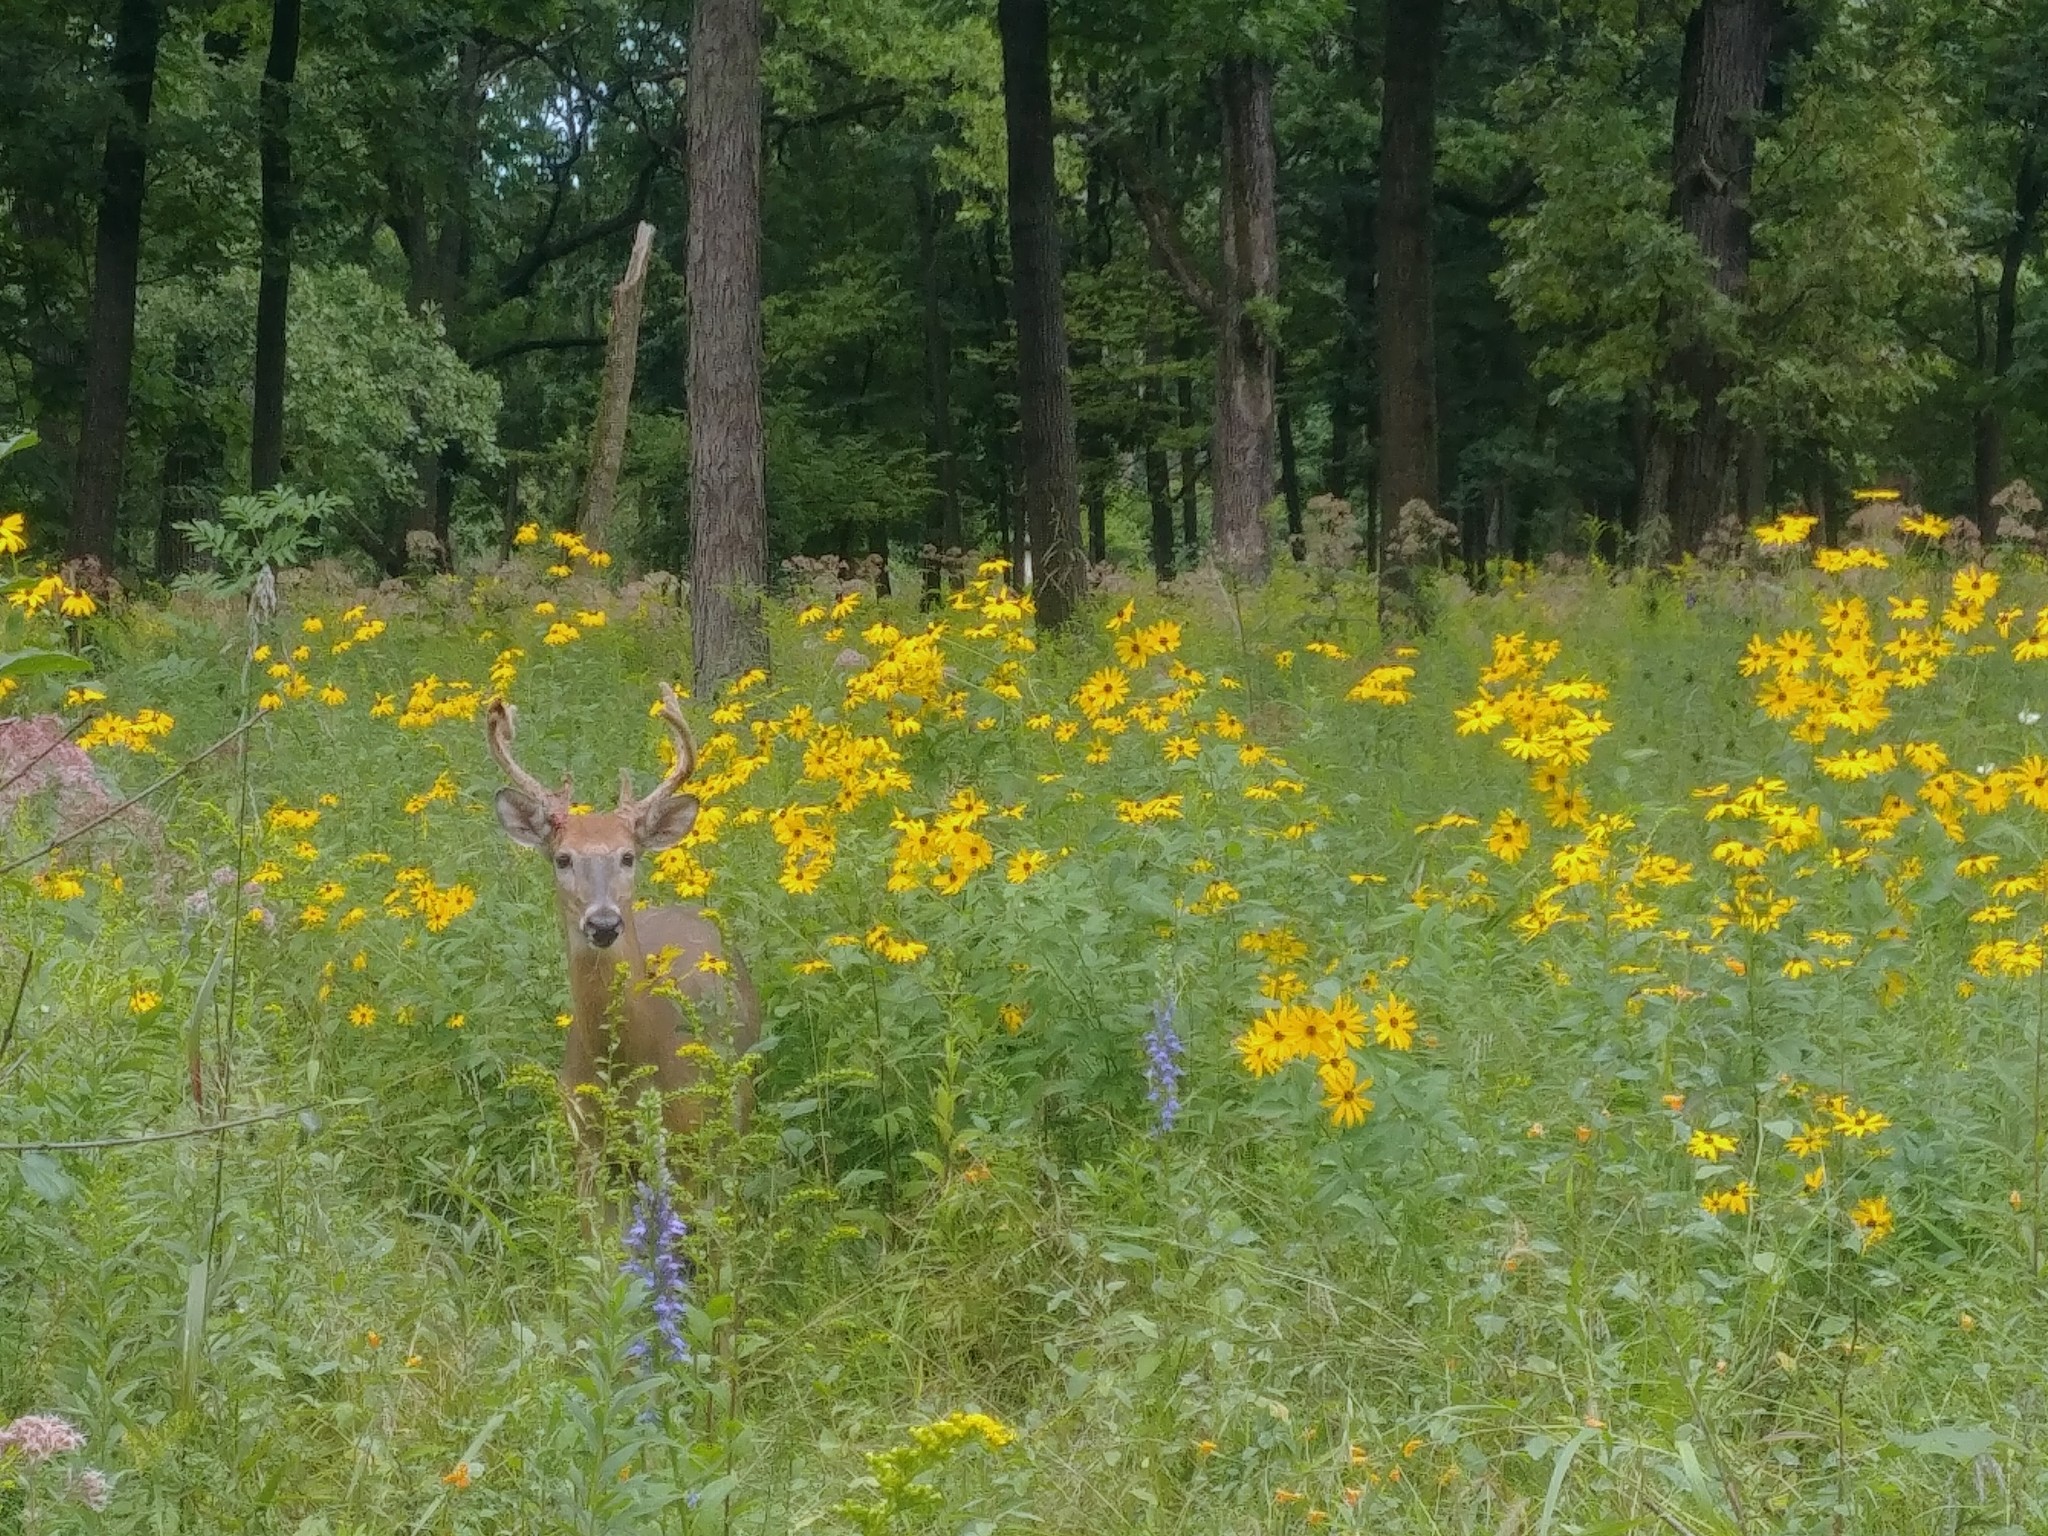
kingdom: Animalia
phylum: Chordata
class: Mammalia
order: Artiodactyla
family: Cervidae
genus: Odocoileus
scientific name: Odocoileus virginianus
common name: White-tailed deer
